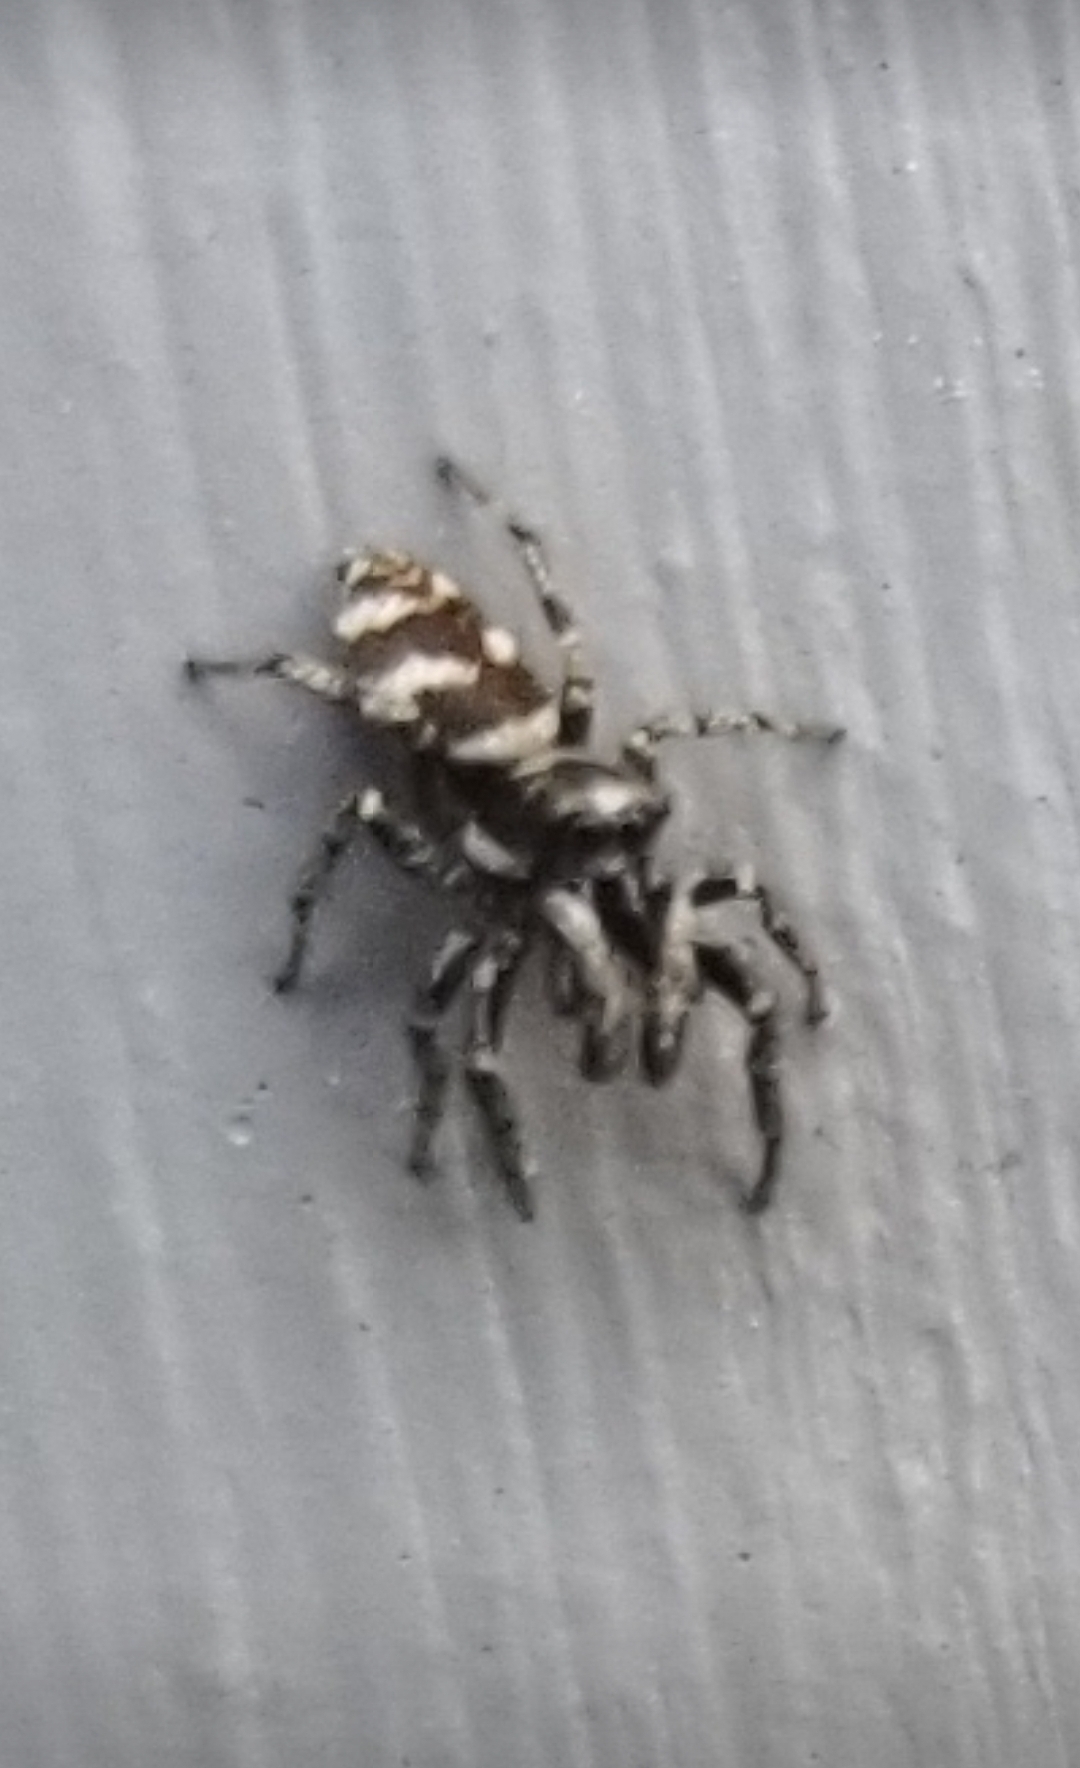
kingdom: Animalia
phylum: Arthropoda
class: Arachnida
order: Araneae
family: Salticidae
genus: Salticus
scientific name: Salticus scenicus
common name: Zebra jumper
